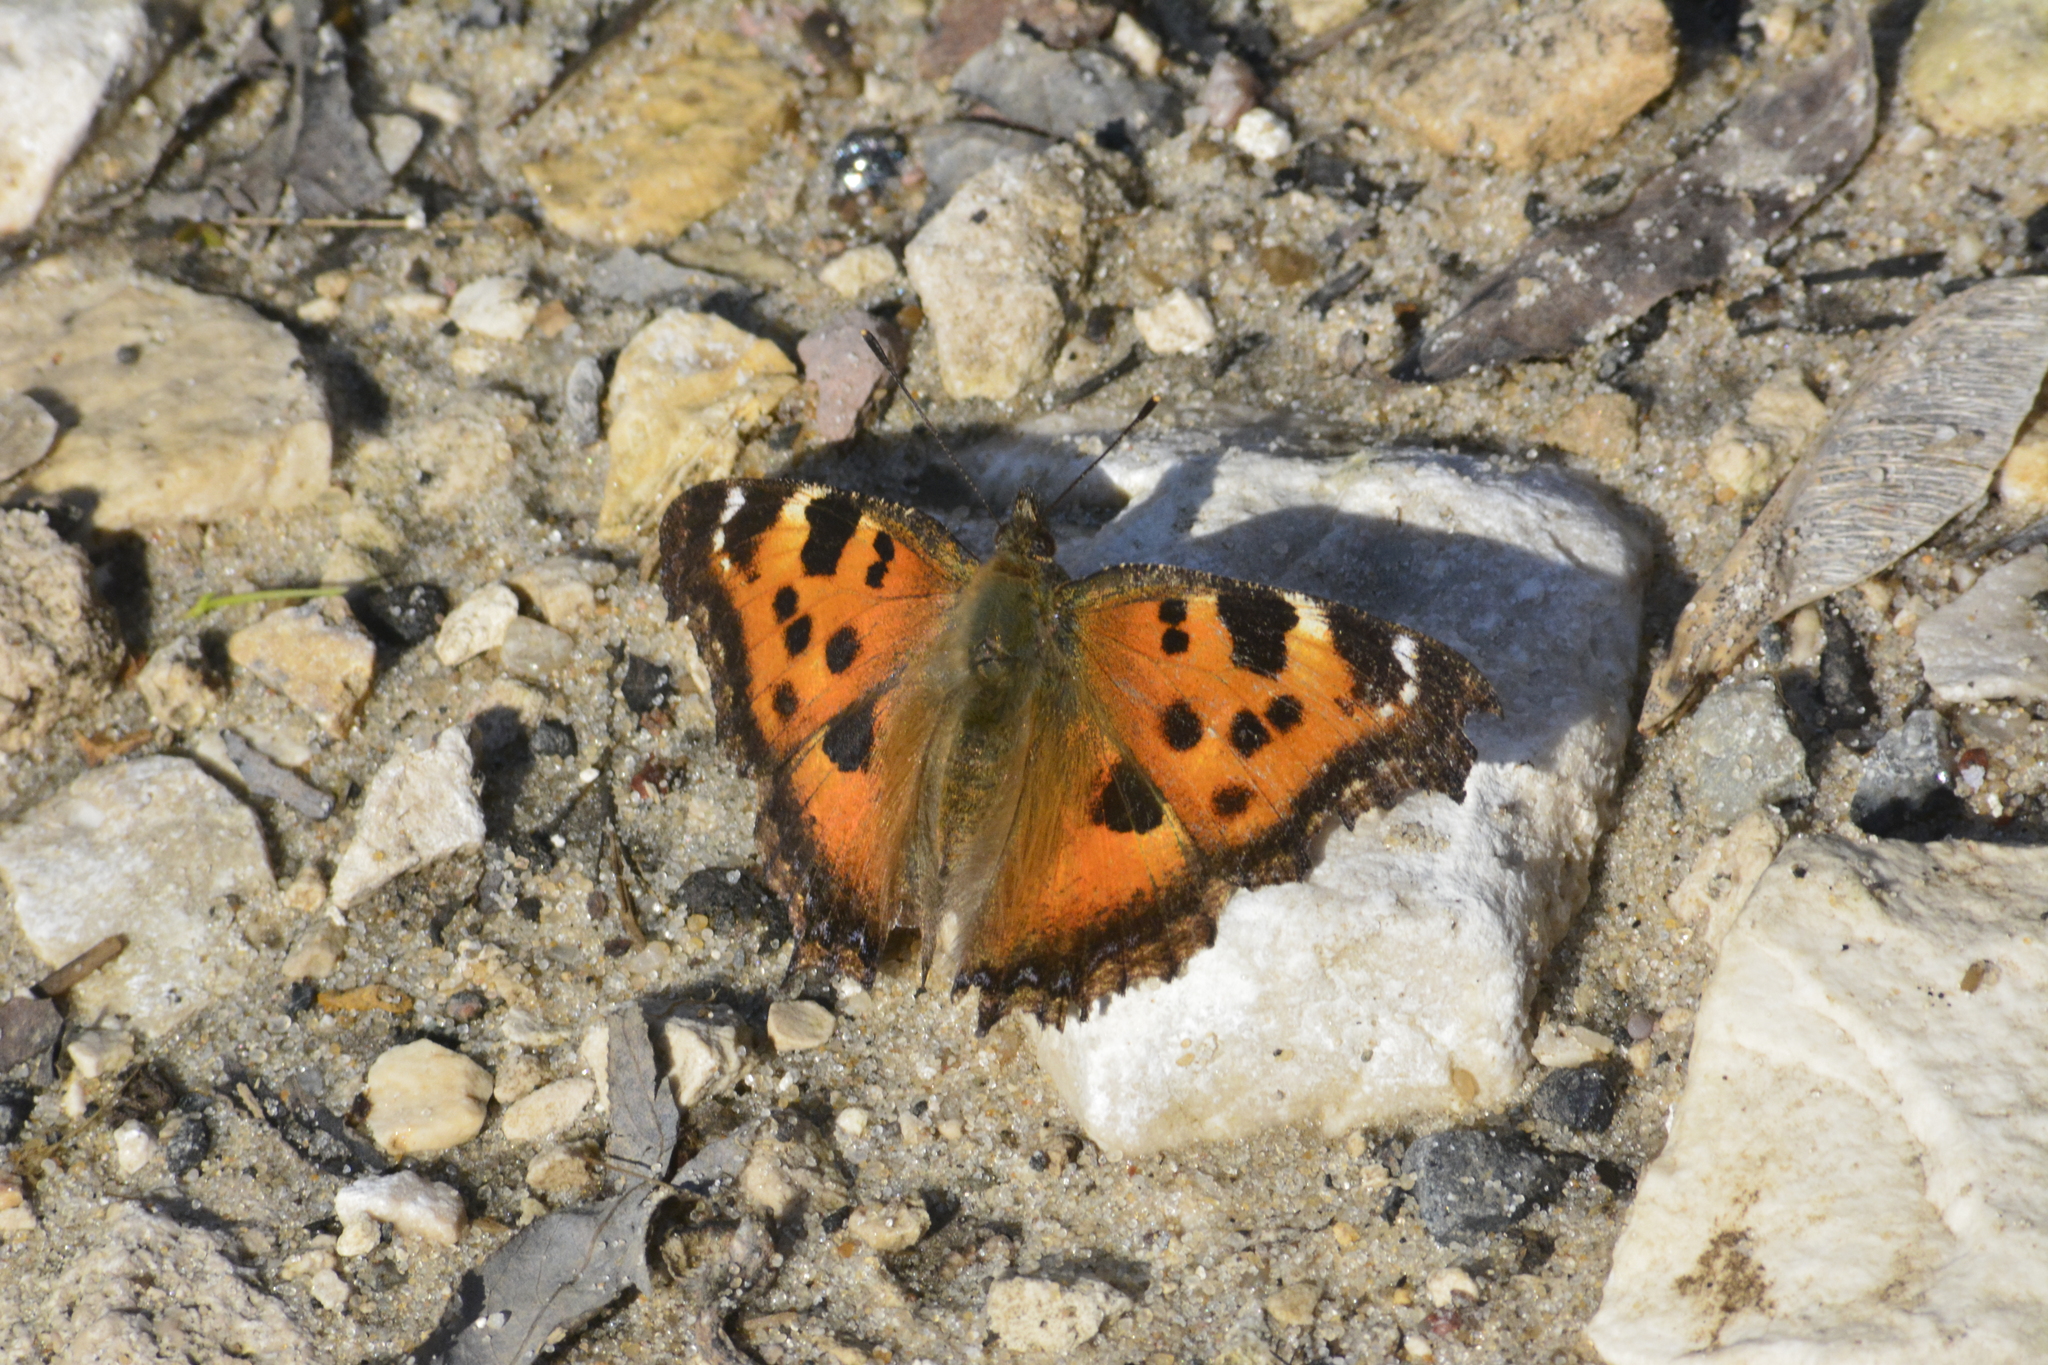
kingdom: Animalia
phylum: Arthropoda
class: Insecta
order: Lepidoptera
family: Nymphalidae
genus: Nymphalis
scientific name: Nymphalis xanthomelas
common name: Scarce tortoiseshell
